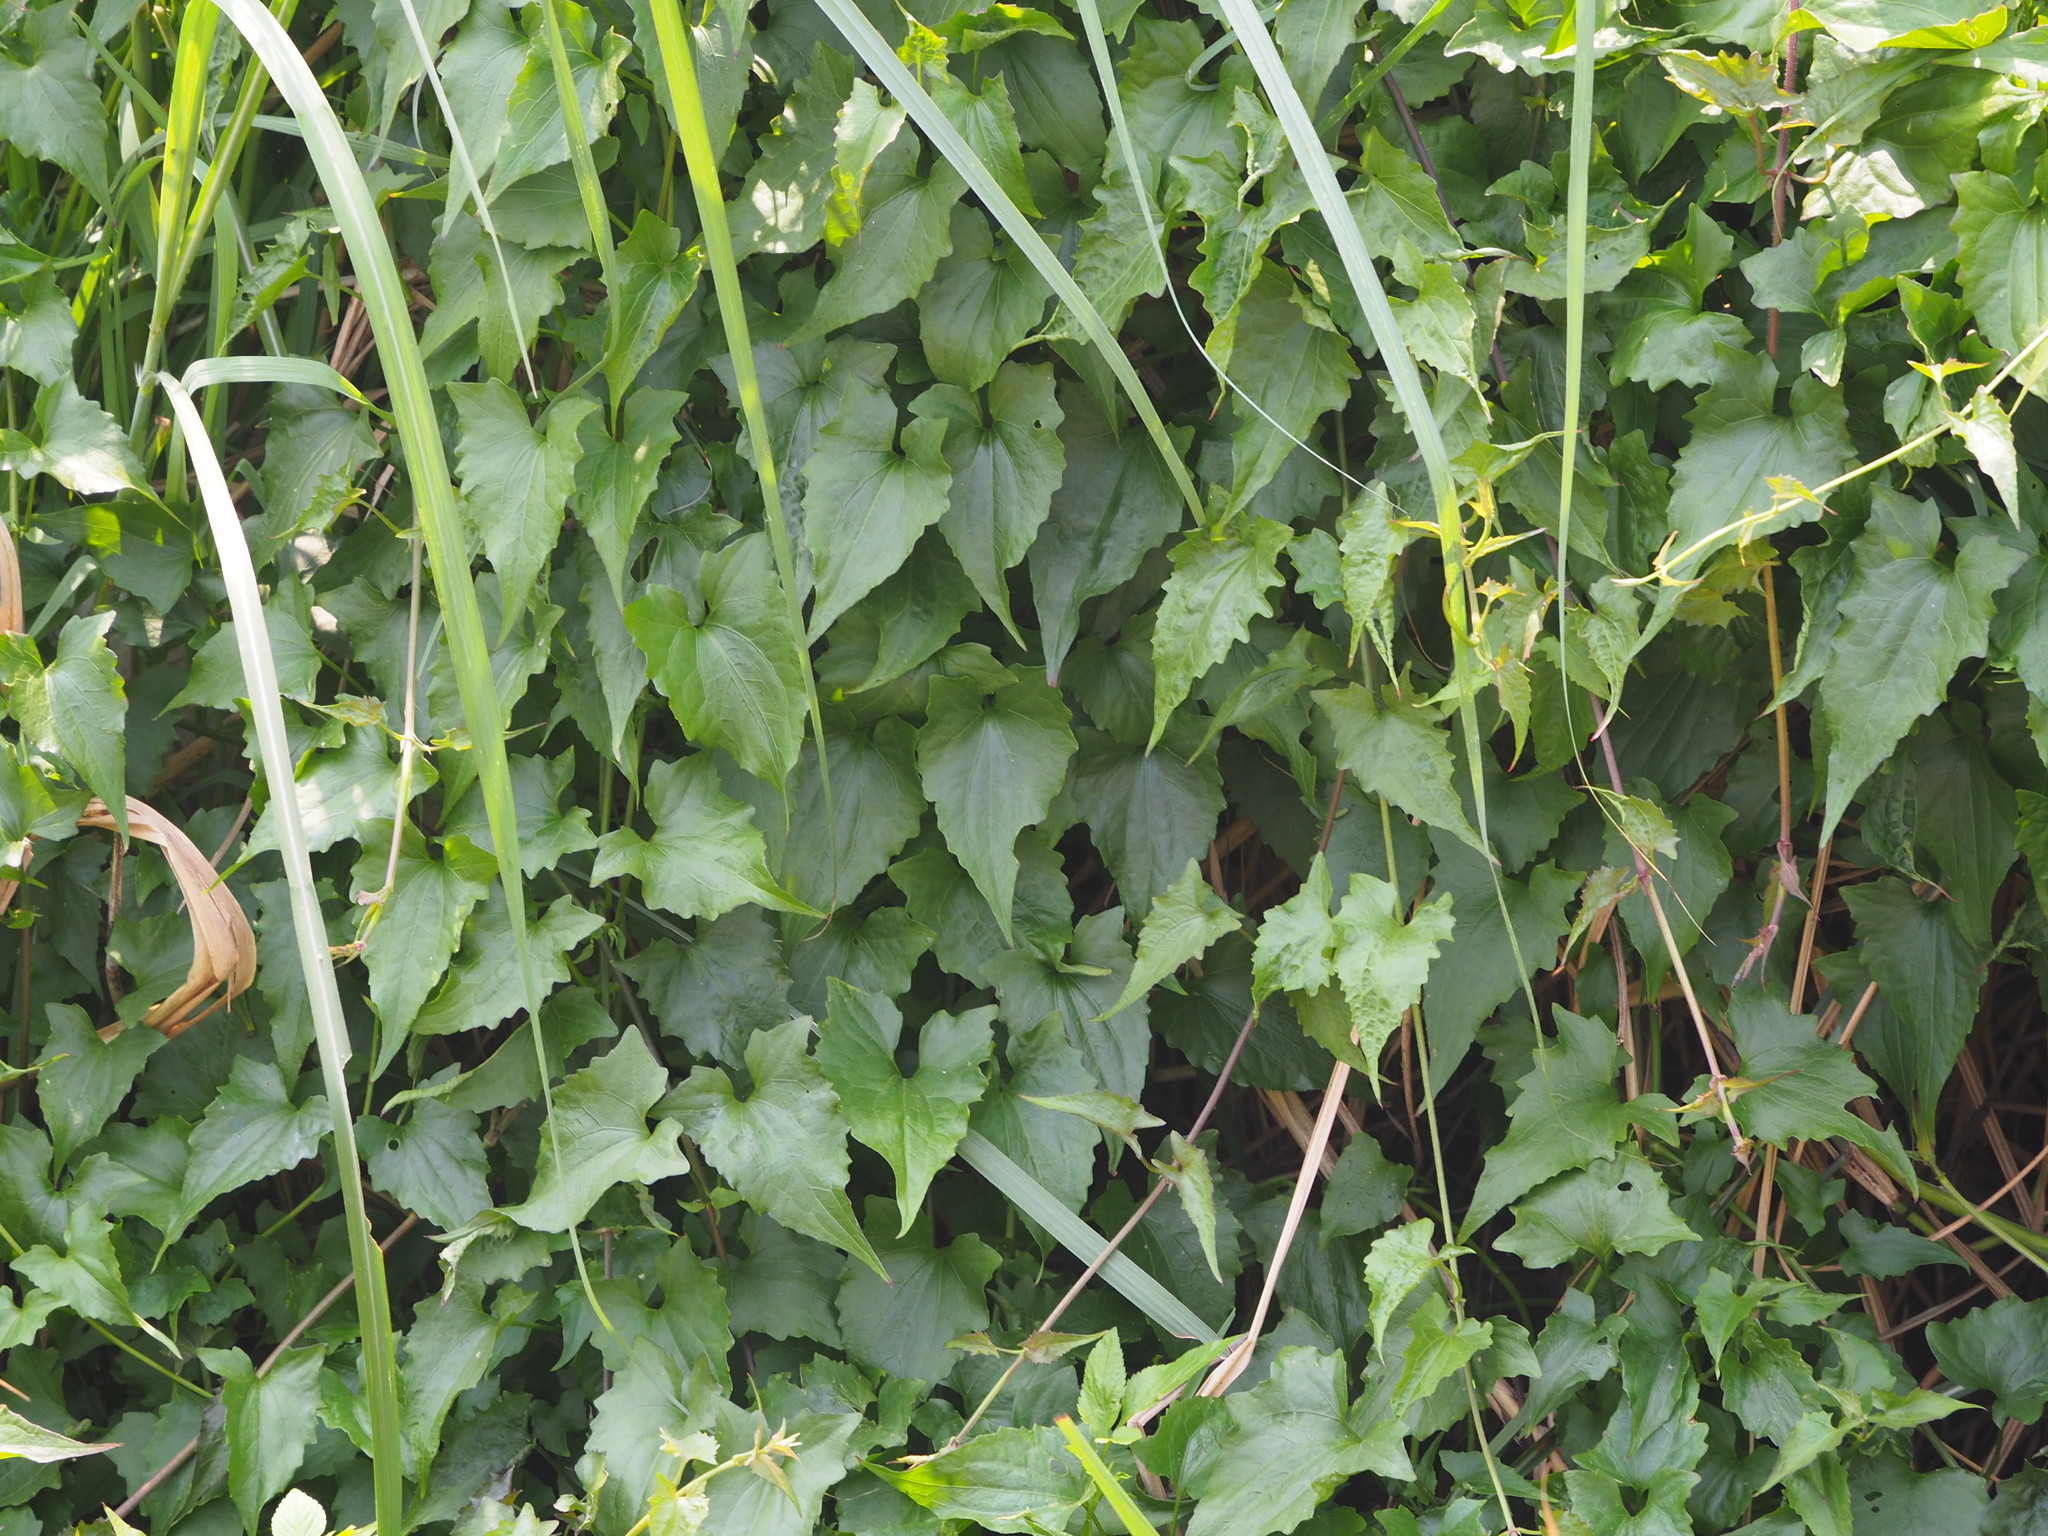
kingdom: Plantae
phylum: Tracheophyta
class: Magnoliopsida
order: Asterales
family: Asteraceae
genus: Mikania
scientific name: Mikania micrantha
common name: Mile-a-minute
